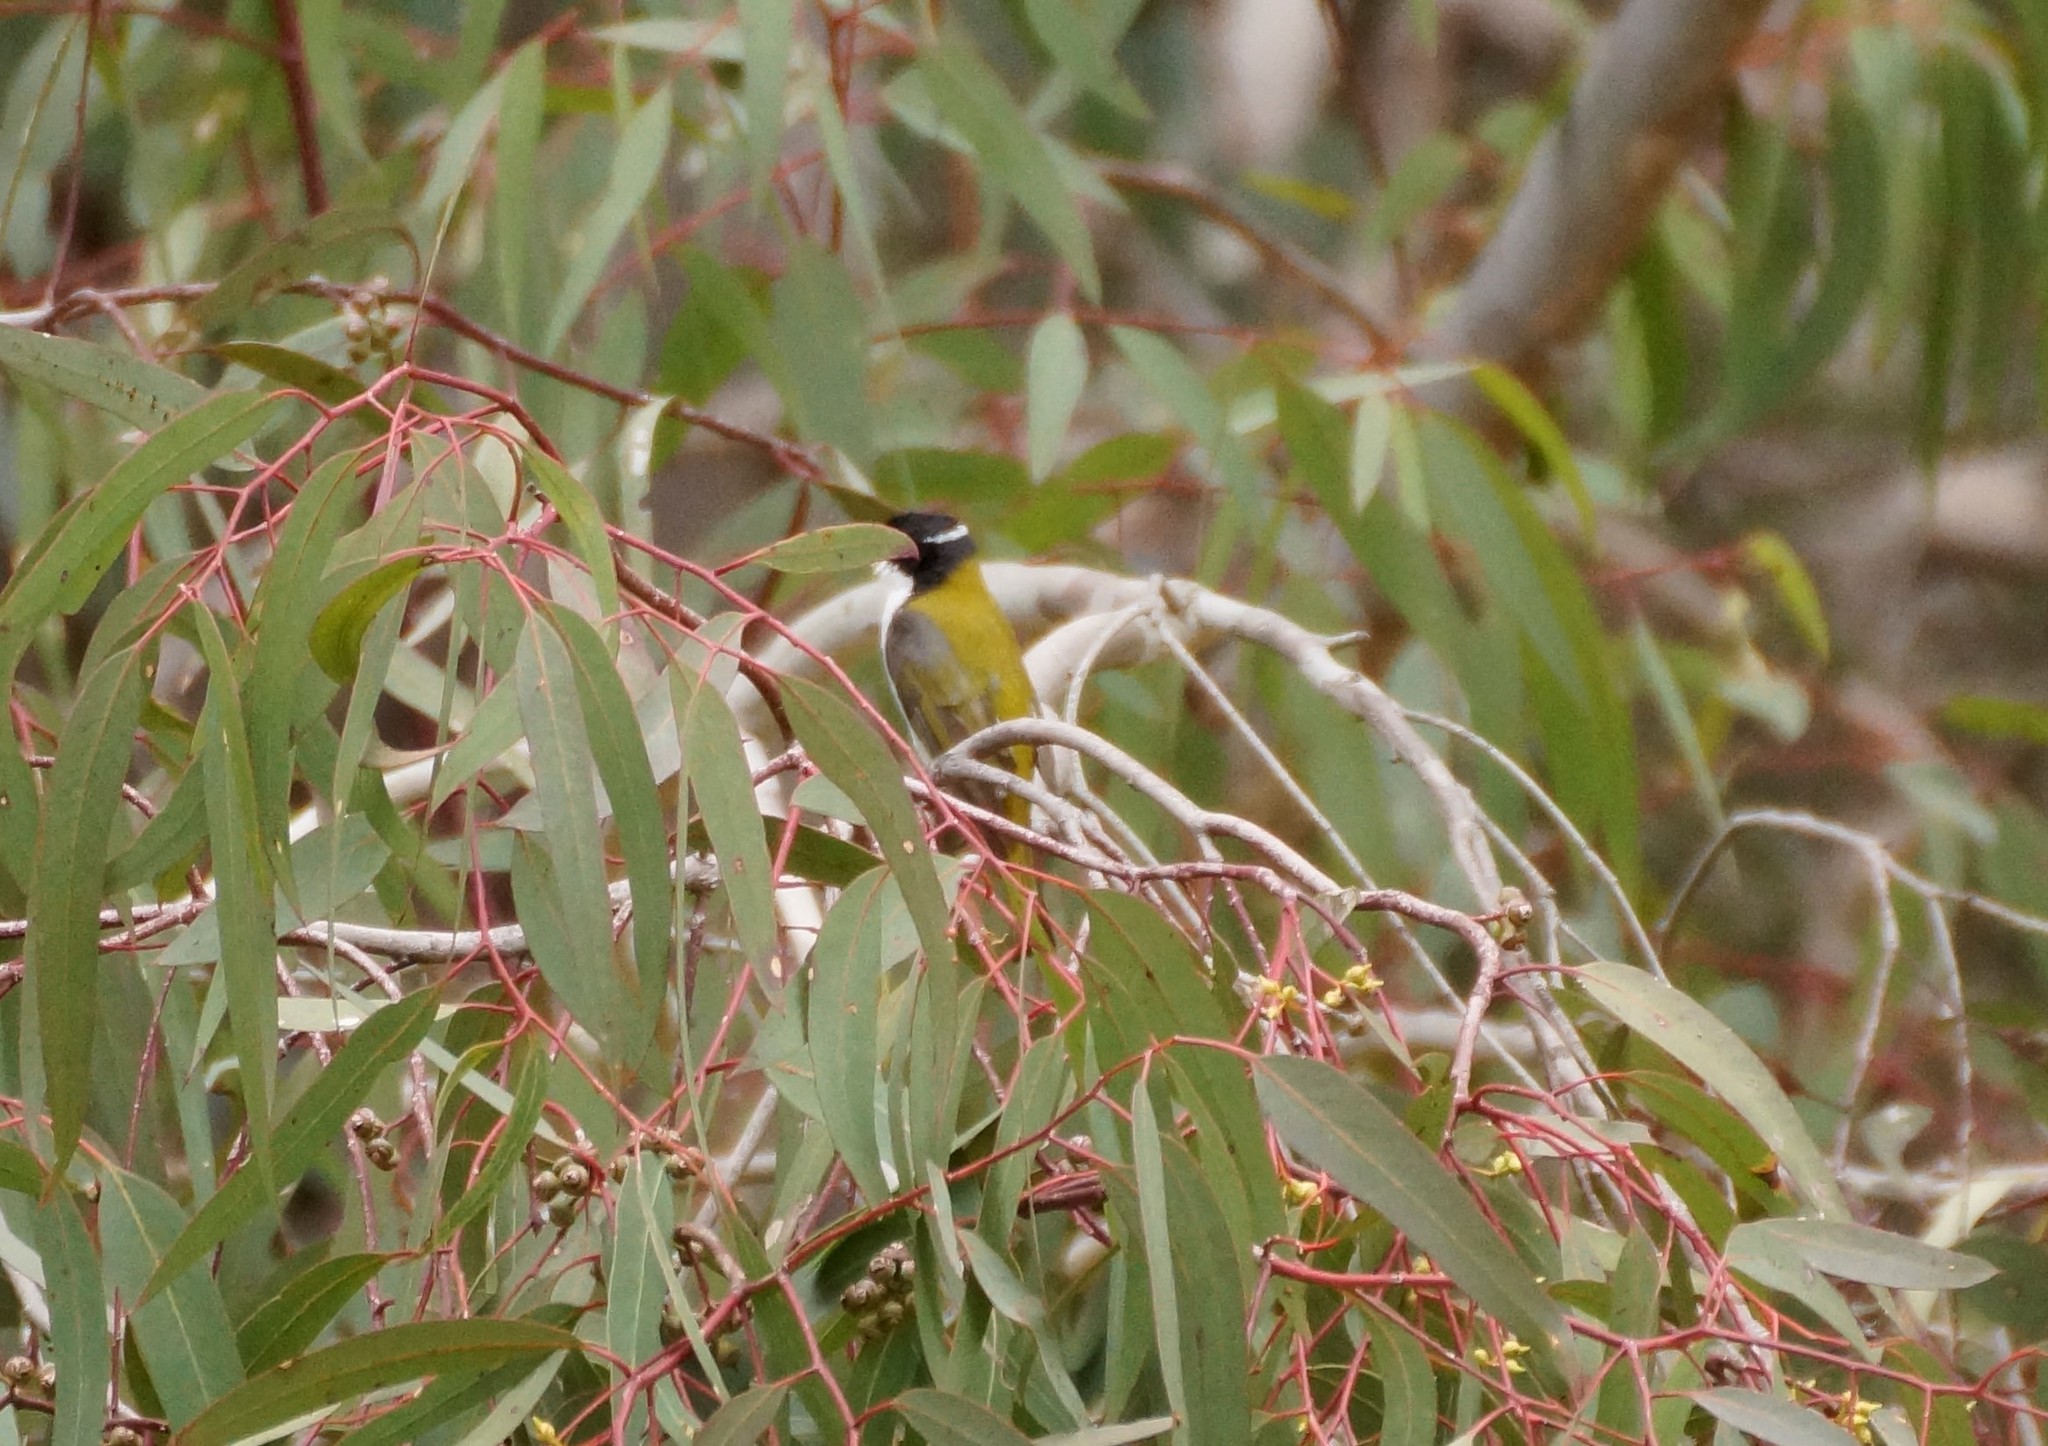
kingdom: Animalia
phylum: Chordata
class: Aves
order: Passeriformes
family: Meliphagidae
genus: Melithreptus
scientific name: Melithreptus lunatus
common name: White-naped honeyeater
